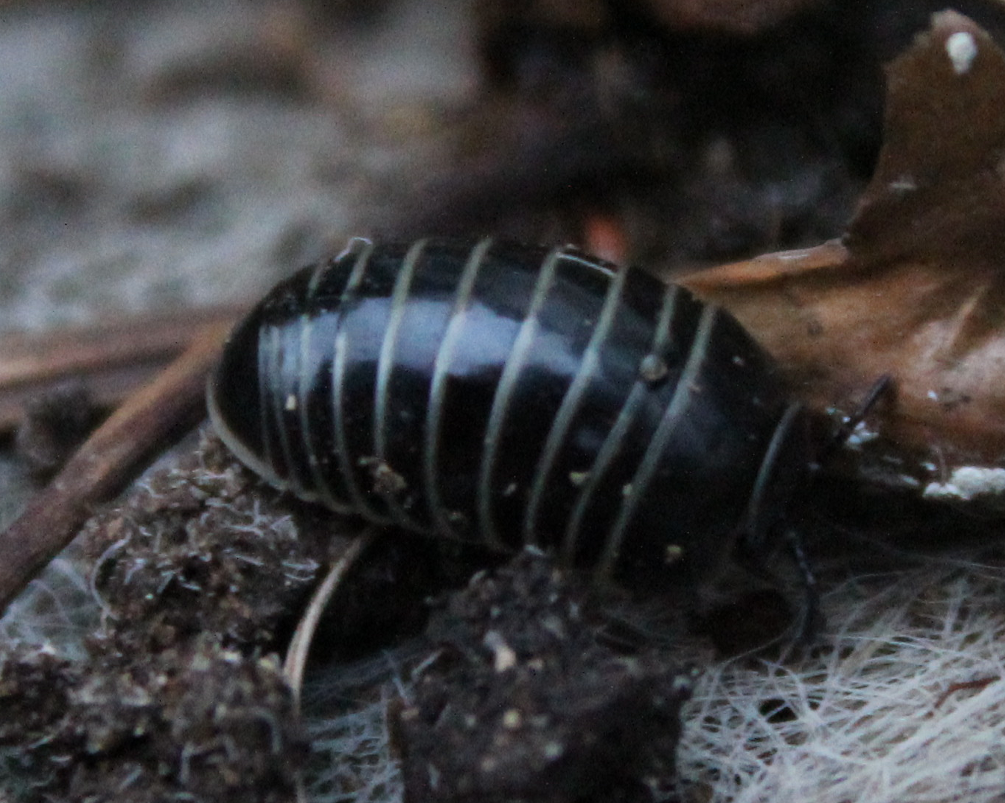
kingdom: Animalia
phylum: Arthropoda
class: Diplopoda
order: Glomerida
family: Glomeridae
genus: Glomeris
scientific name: Glomeris marginata
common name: Bordered pill millipede
